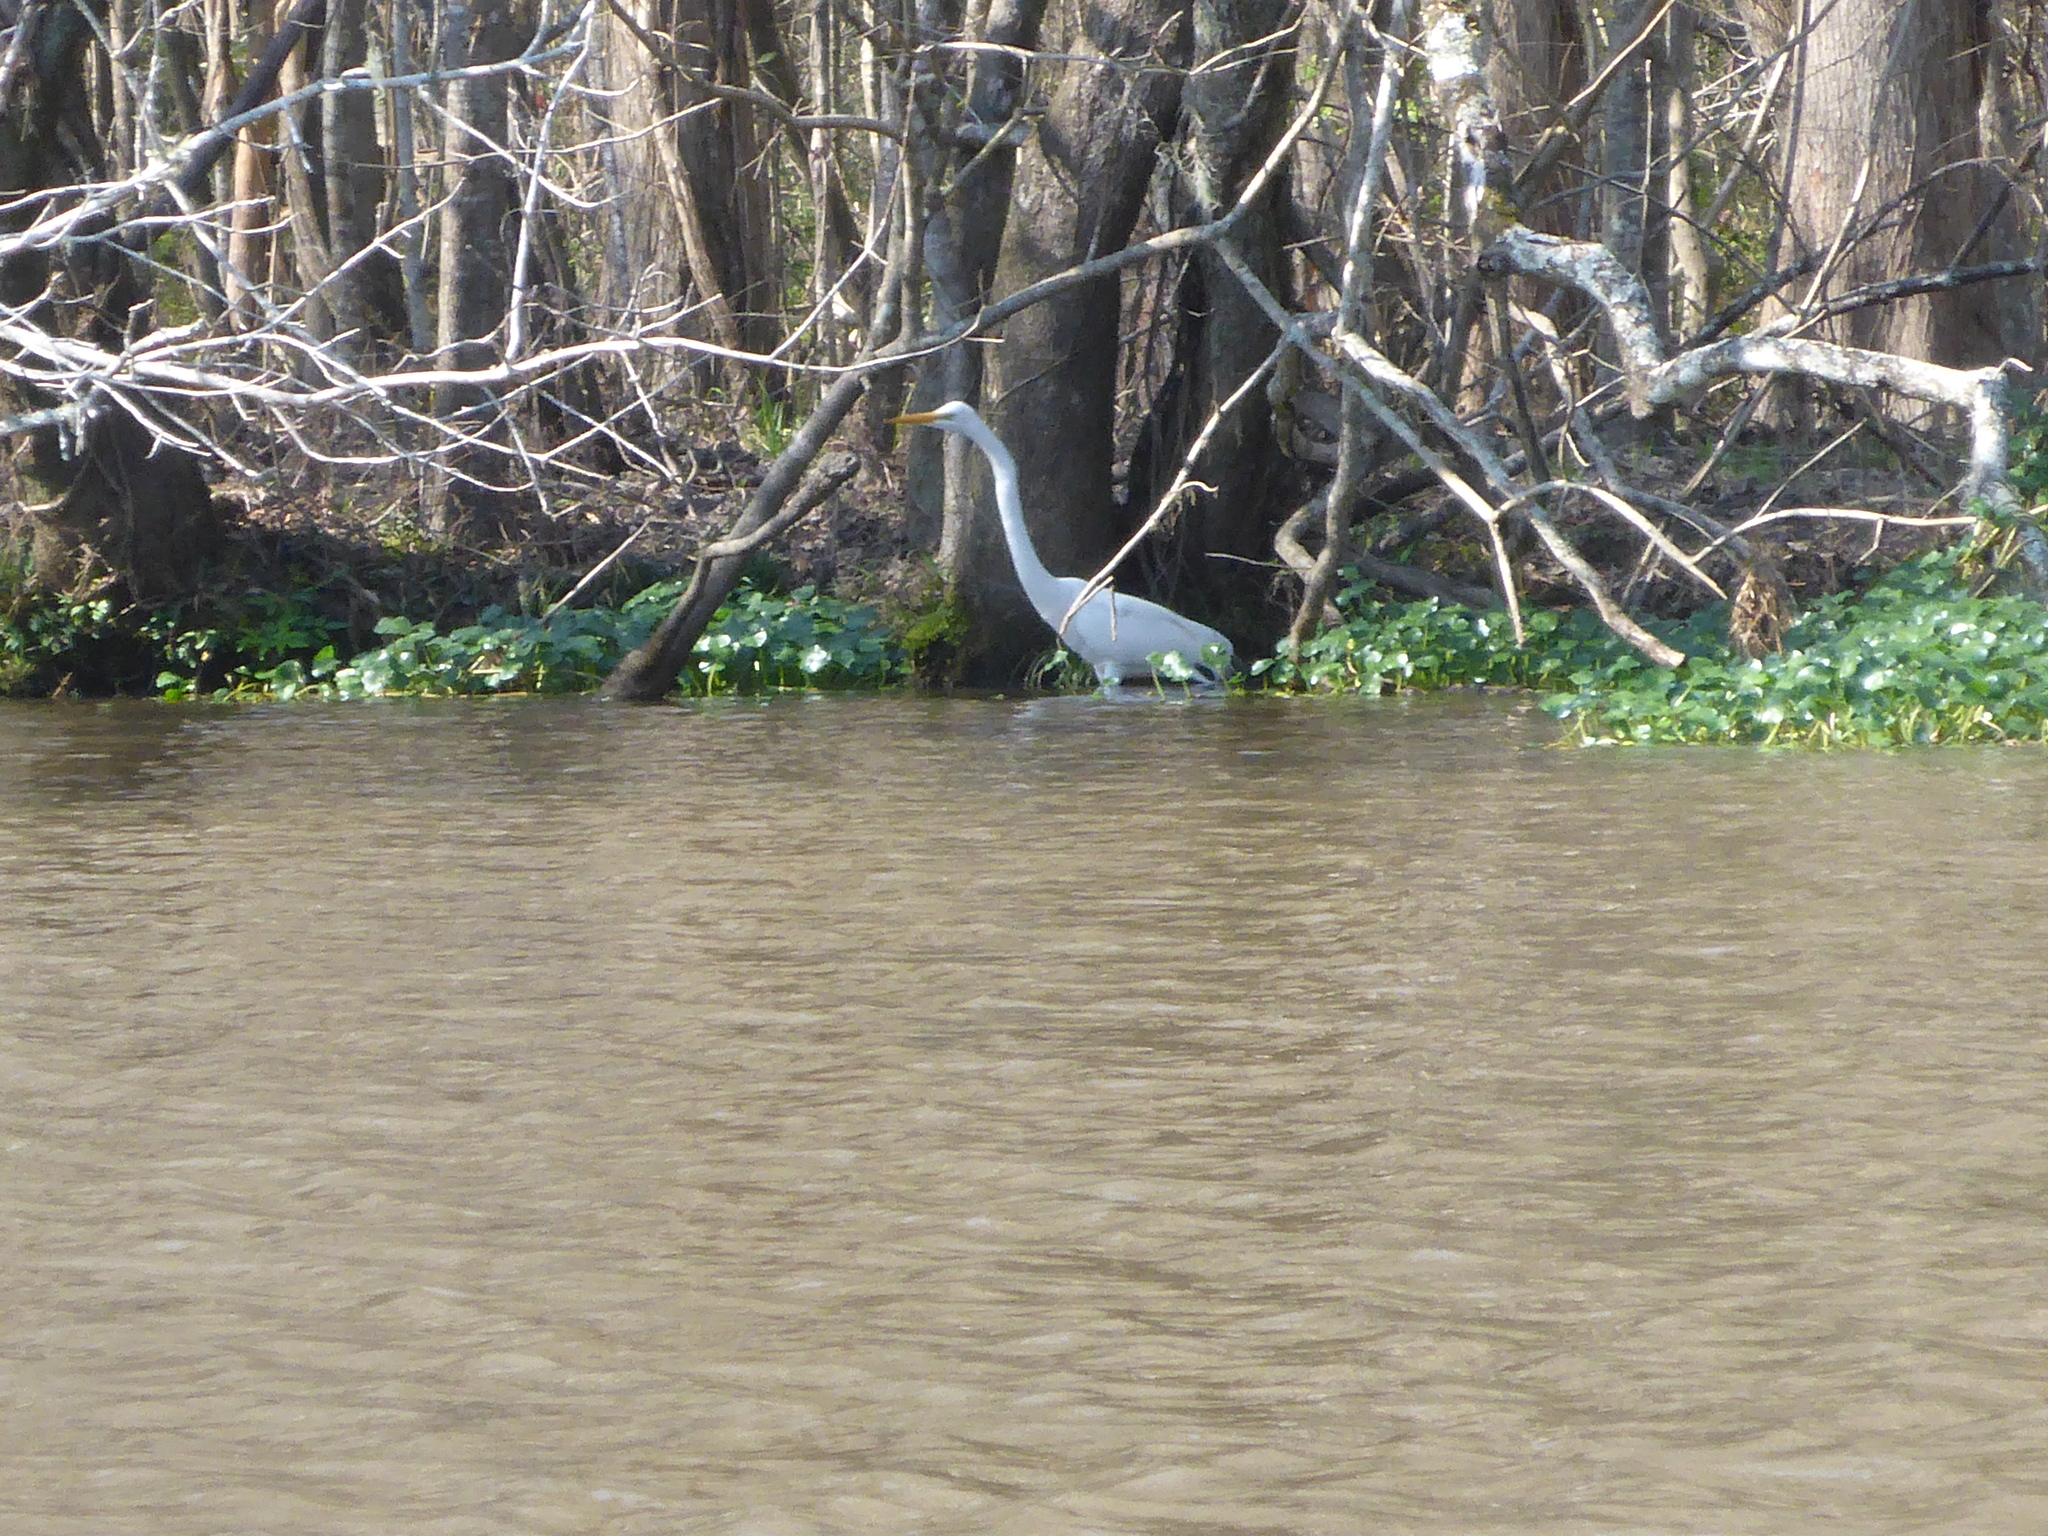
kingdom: Animalia
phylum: Chordata
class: Aves
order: Pelecaniformes
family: Ardeidae
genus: Ardea
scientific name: Ardea alba
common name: Great egret
